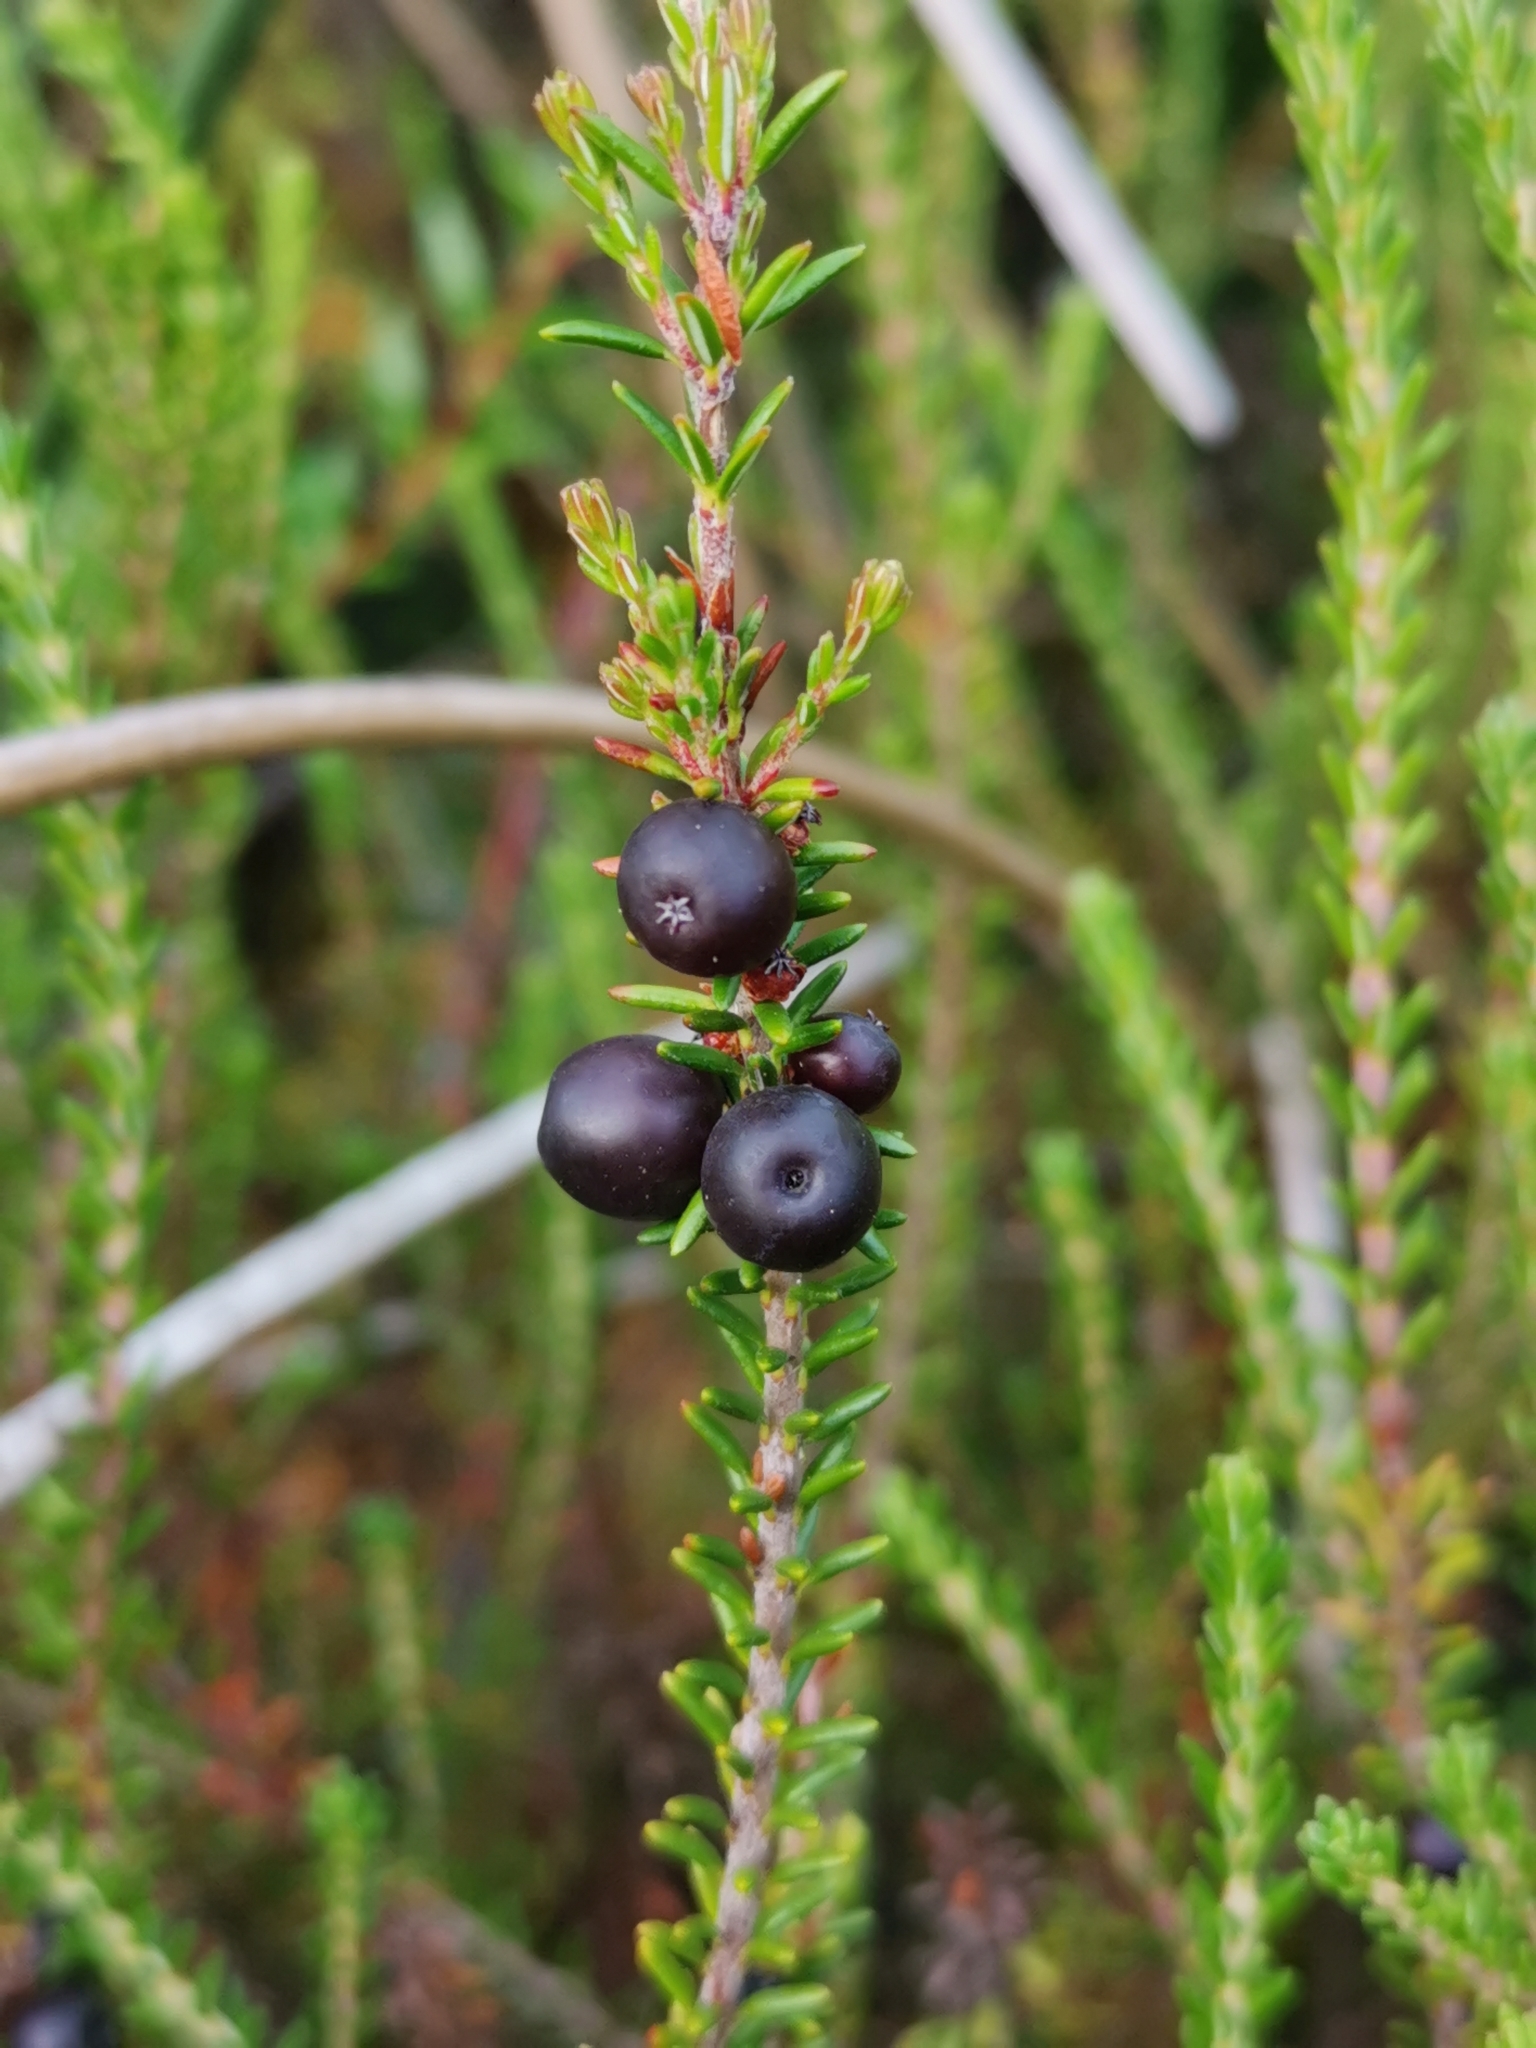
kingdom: Plantae
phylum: Tracheophyta
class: Magnoliopsida
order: Ericales
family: Ericaceae
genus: Empetrum
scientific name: Empetrum rubrum
